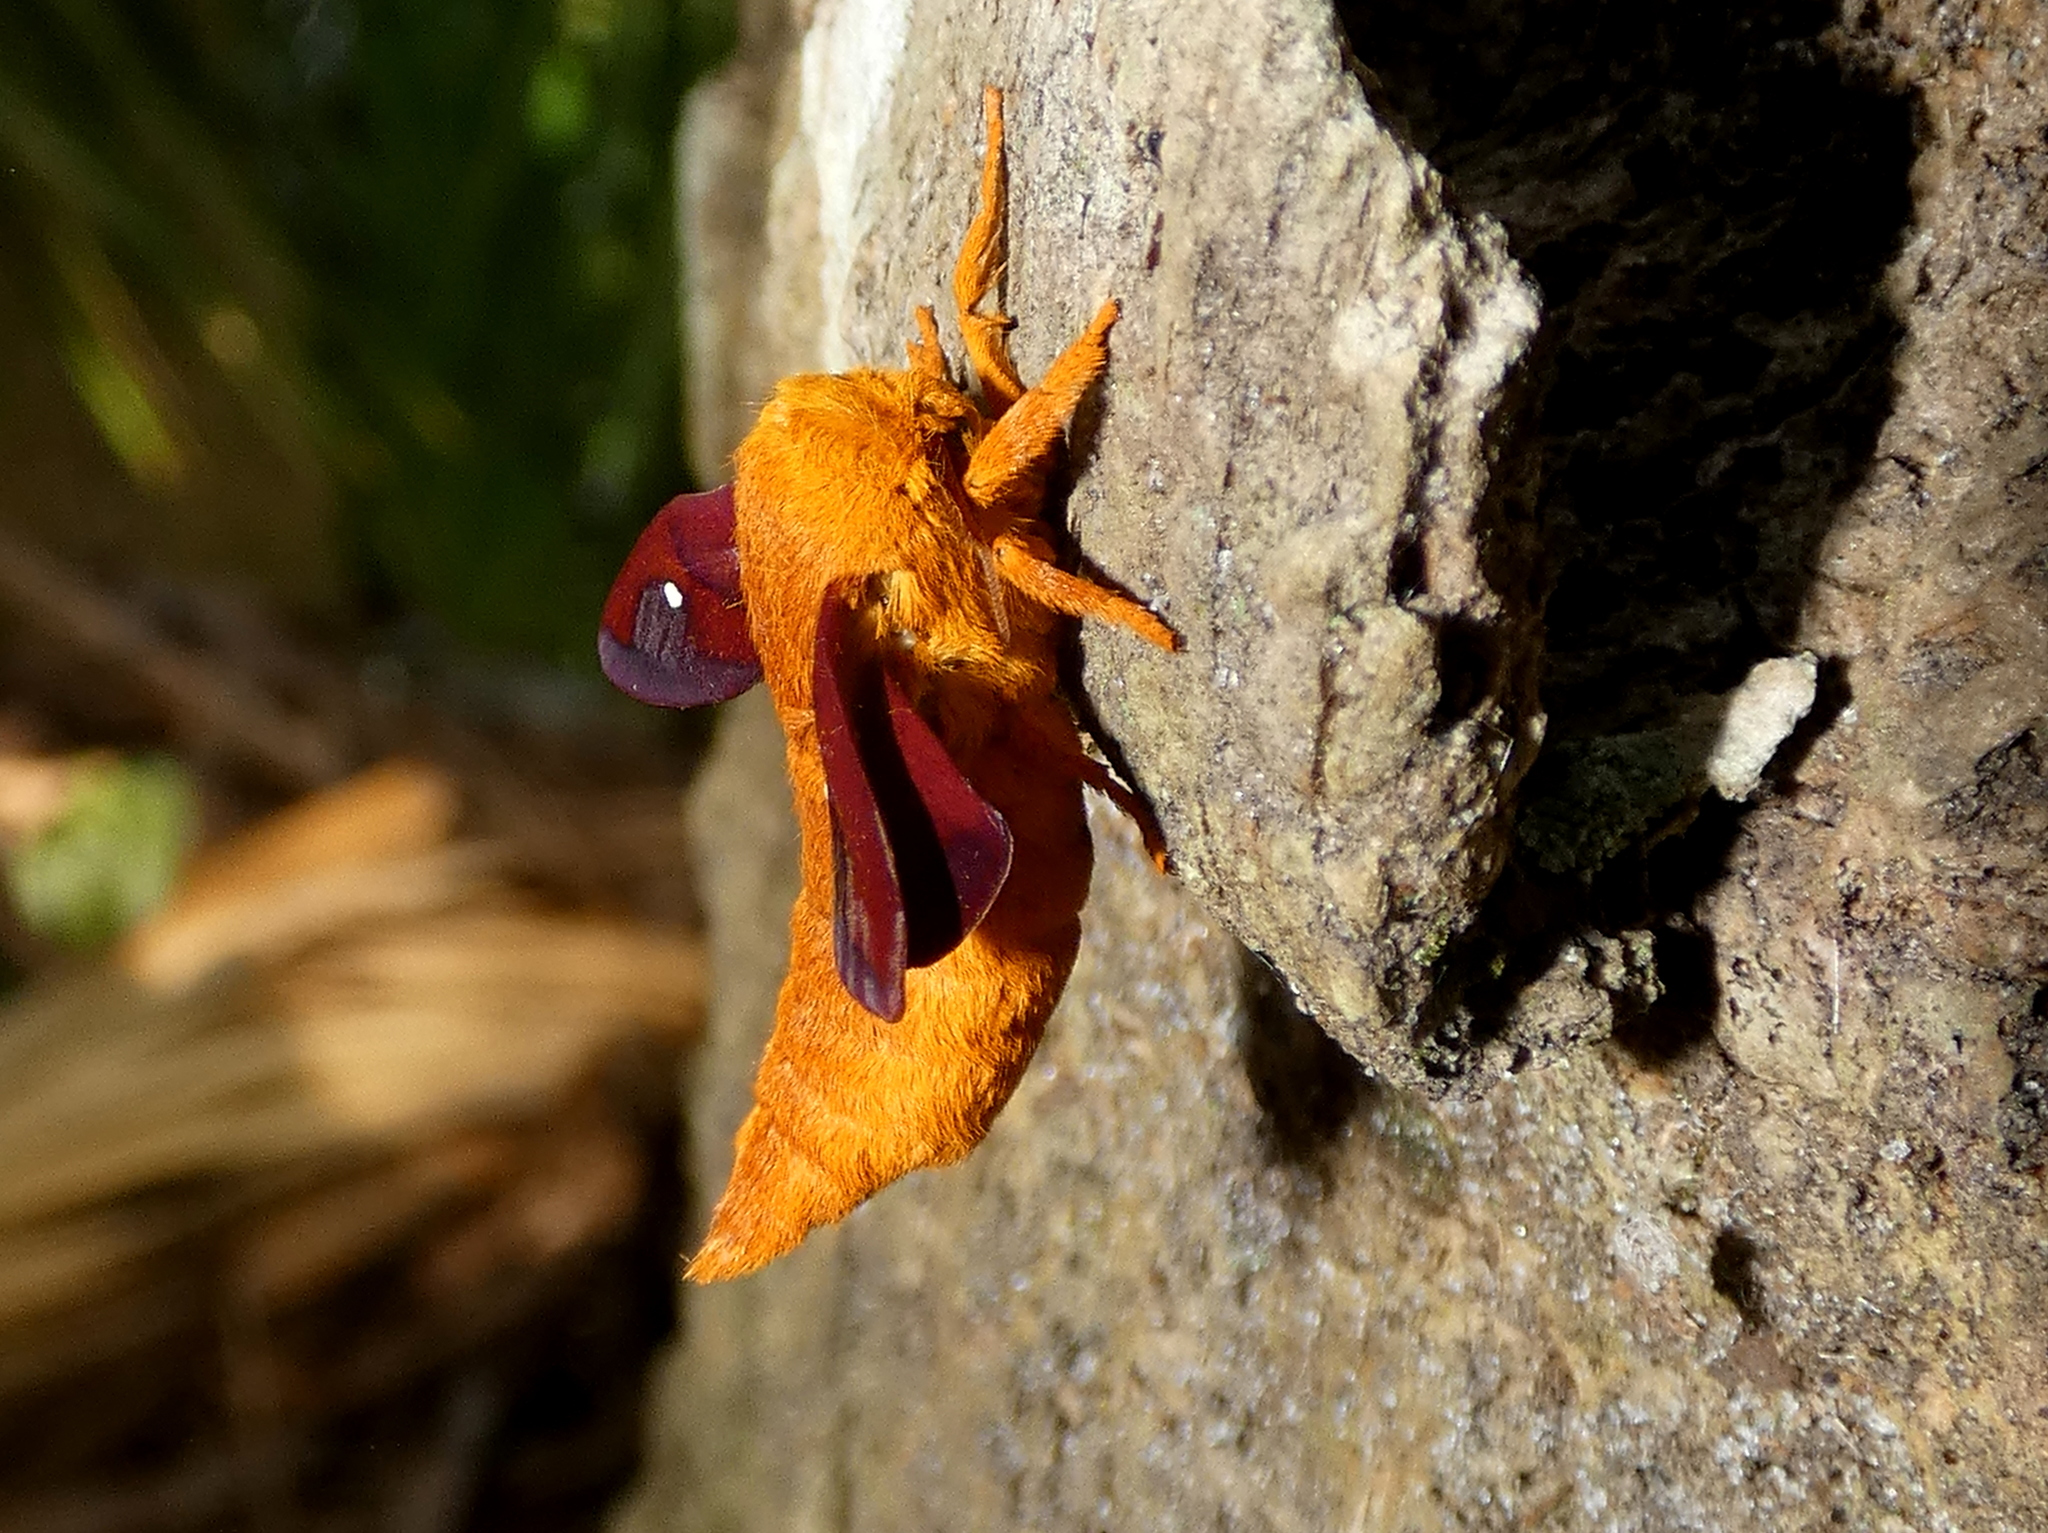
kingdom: Animalia
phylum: Arthropoda
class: Insecta
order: Lepidoptera
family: Saturniidae
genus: Anisota
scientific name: Anisota virginiensis
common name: Pink striped oakworm moth
